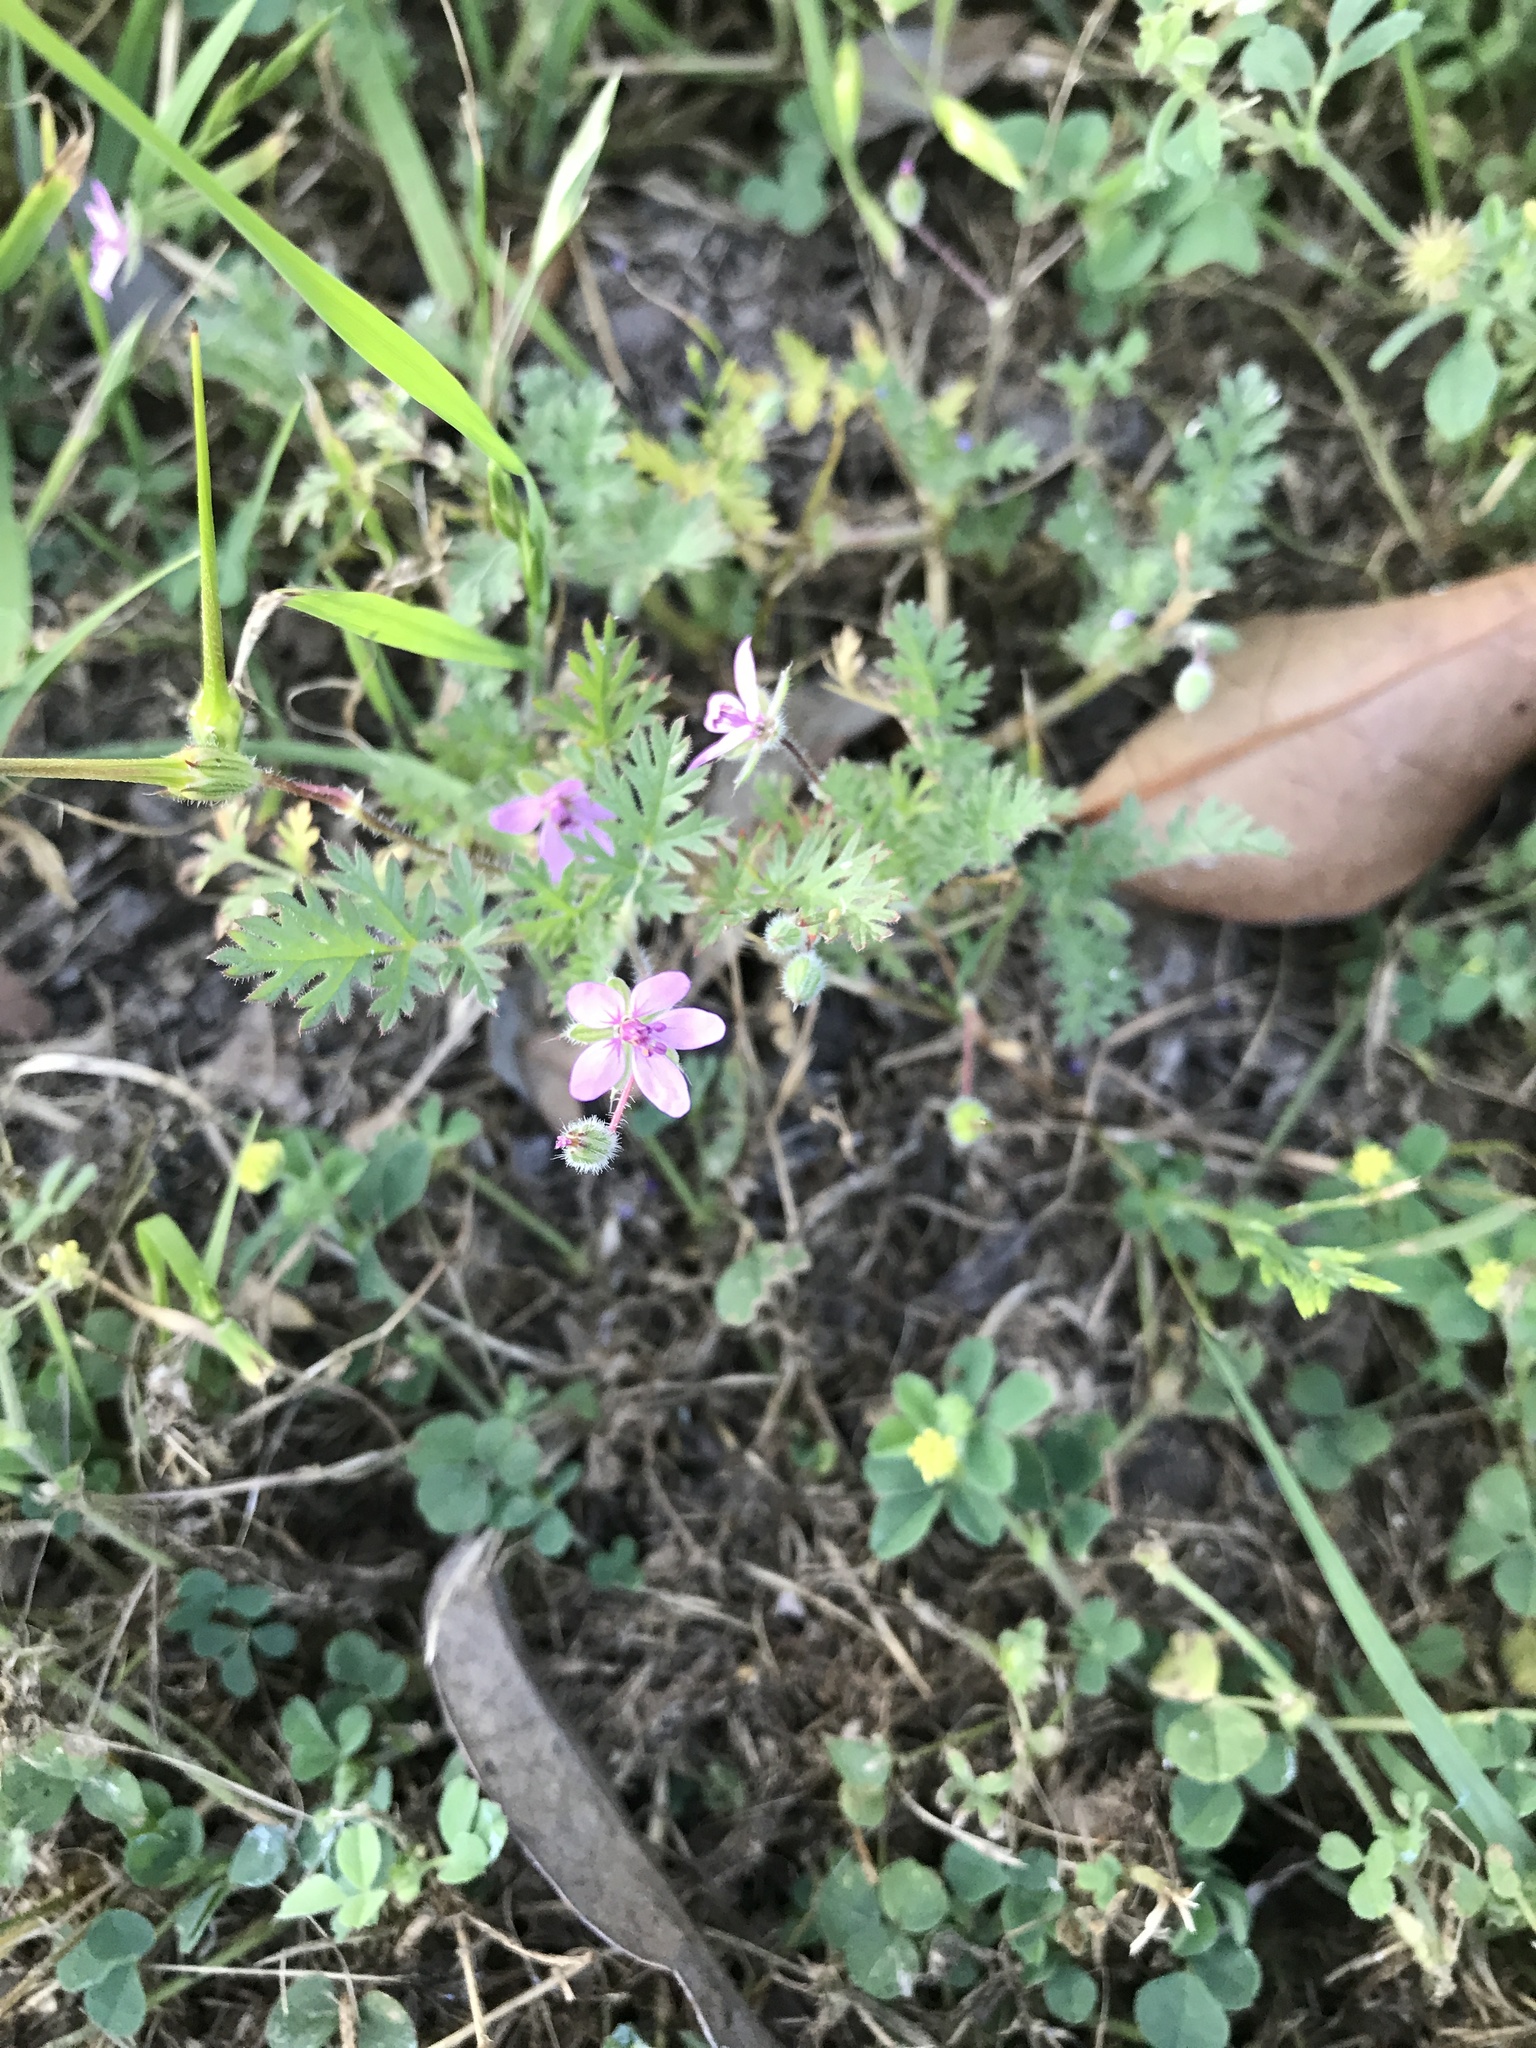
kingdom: Plantae
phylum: Tracheophyta
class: Magnoliopsida
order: Geraniales
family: Geraniaceae
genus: Erodium
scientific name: Erodium cicutarium
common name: Common stork's-bill
